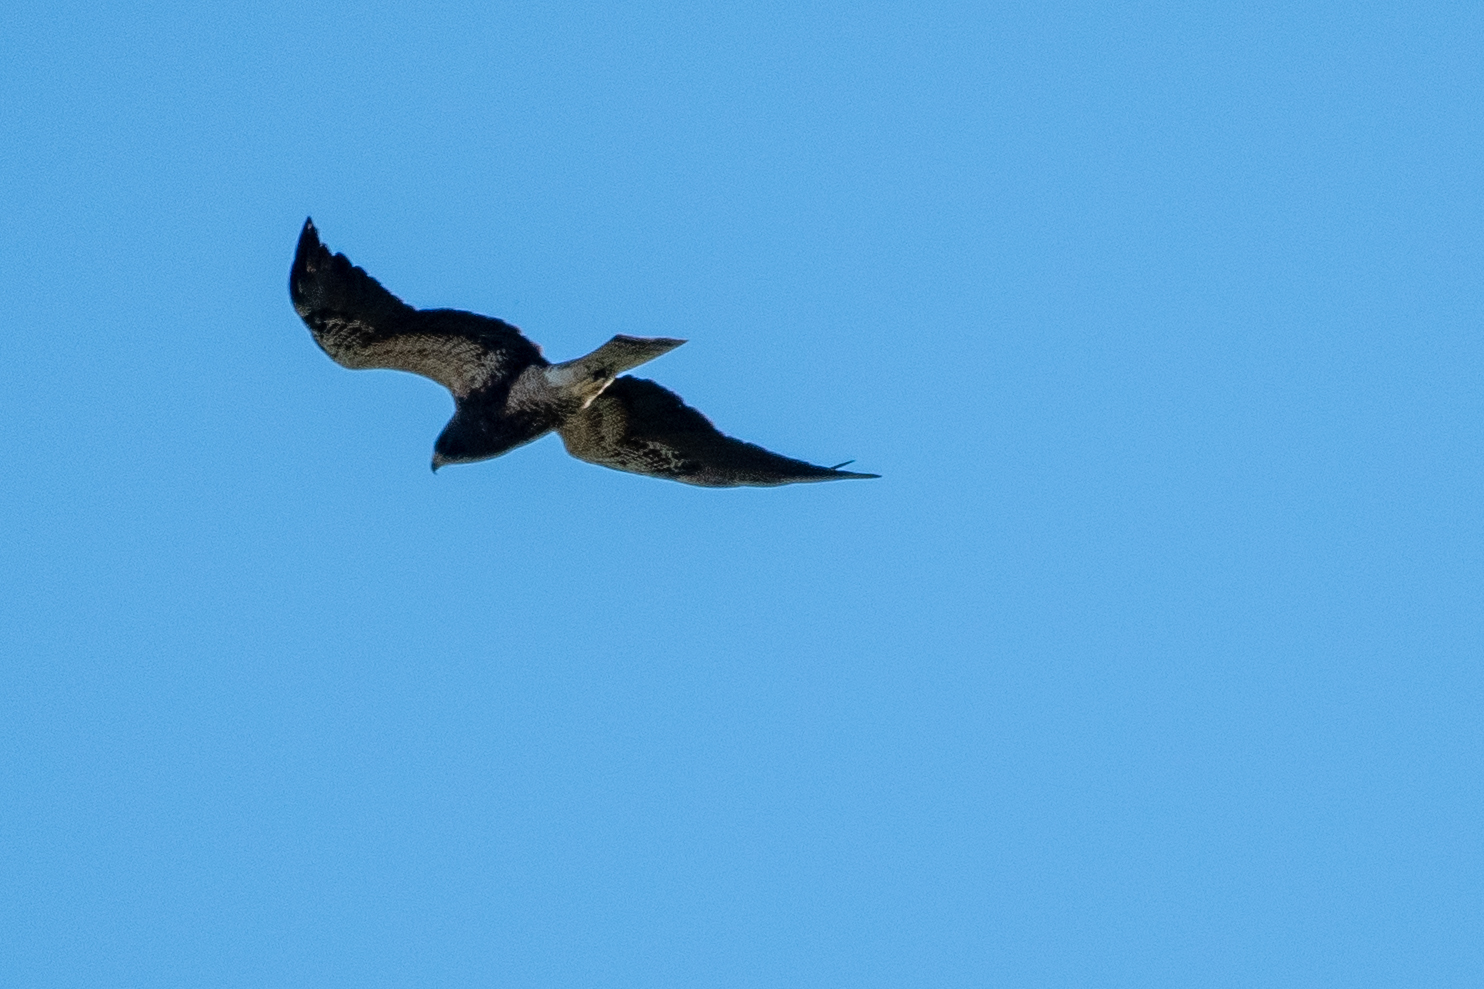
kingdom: Animalia
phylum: Chordata
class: Aves
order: Accipitriformes
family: Accipitridae
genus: Buteo
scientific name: Buteo swainsoni
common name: Swainson's hawk
